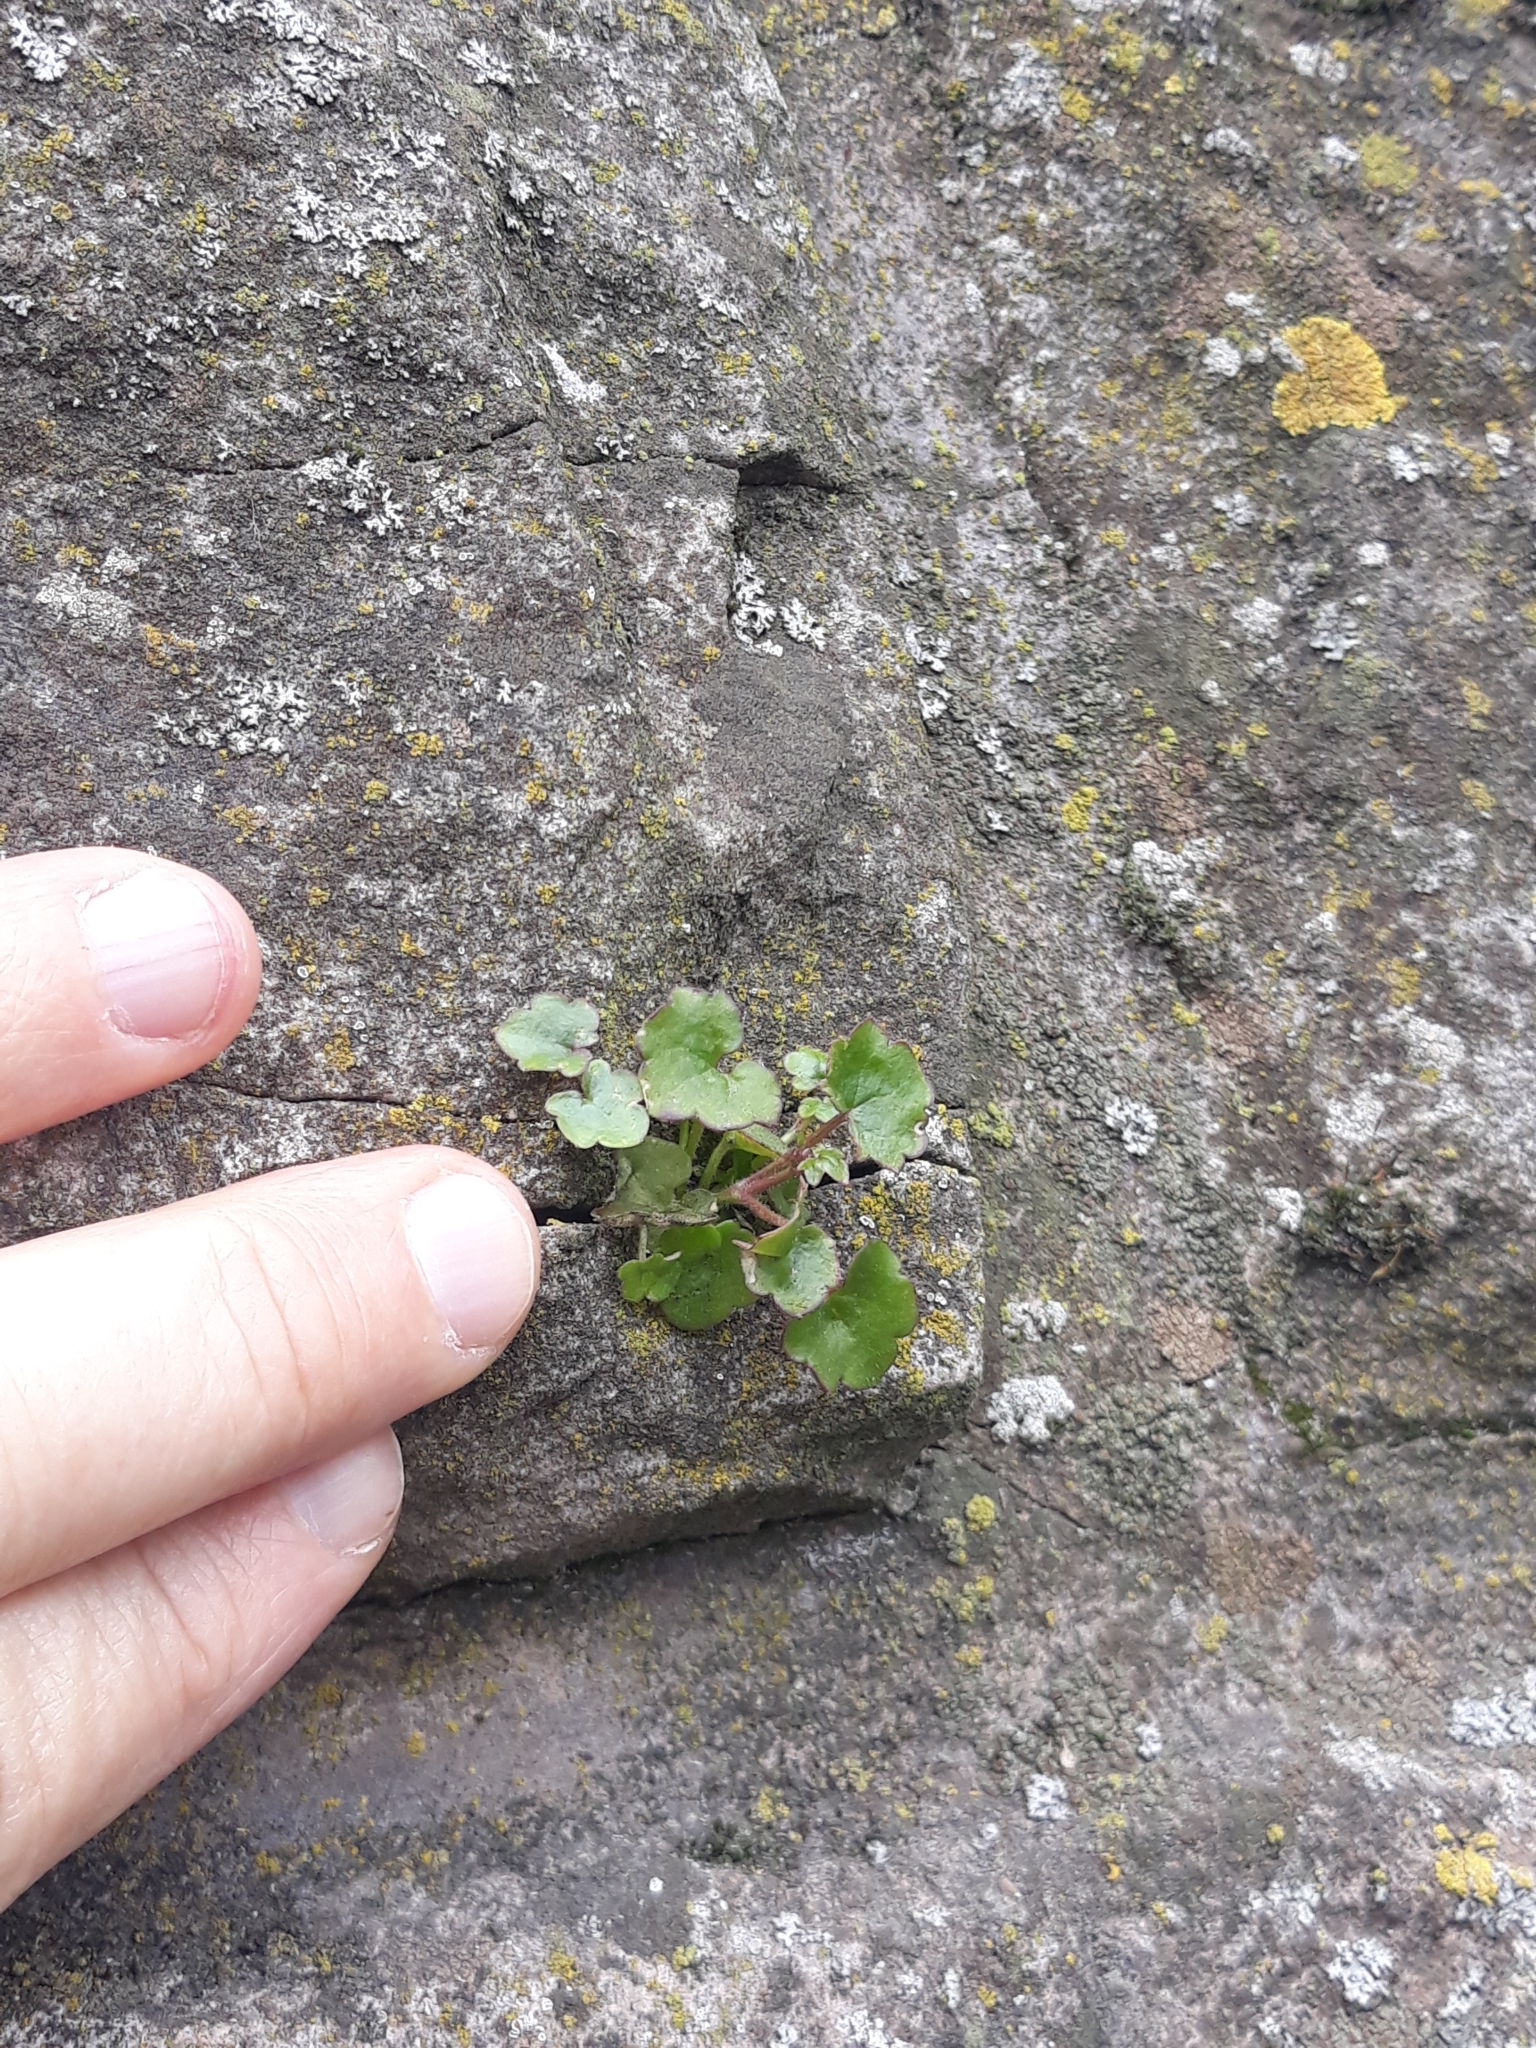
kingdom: Plantae
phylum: Tracheophyta
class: Magnoliopsida
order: Lamiales
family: Plantaginaceae
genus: Cymbalaria
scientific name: Cymbalaria muralis
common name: Ivy-leaved toadflax
